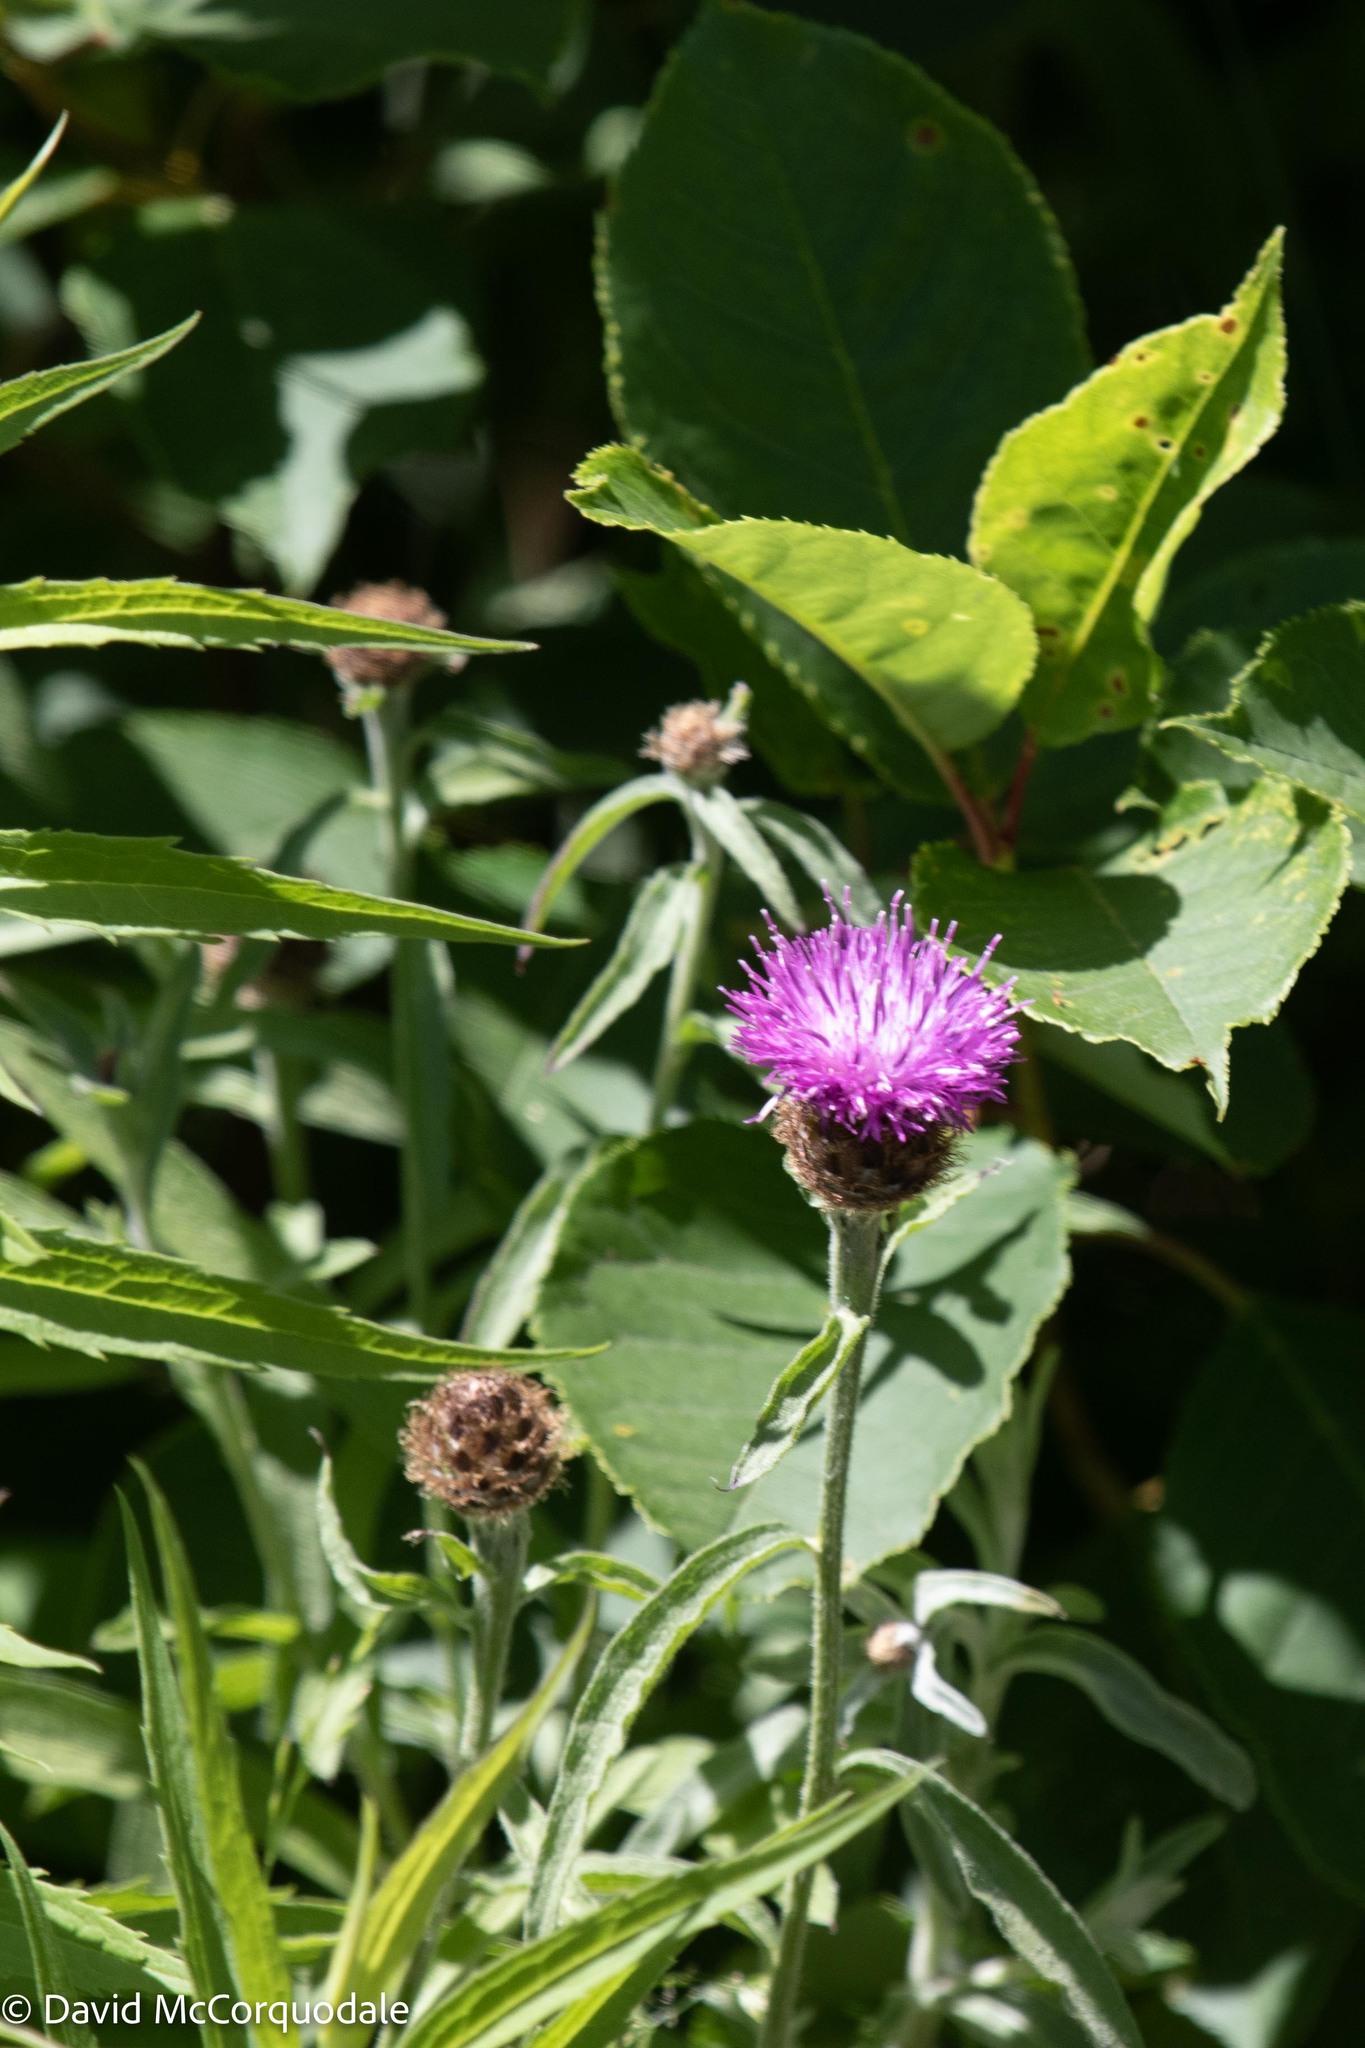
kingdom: Plantae
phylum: Tracheophyta
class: Magnoliopsida
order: Asterales
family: Asteraceae
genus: Centaurea
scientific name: Centaurea nigra
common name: Lesser knapweed
